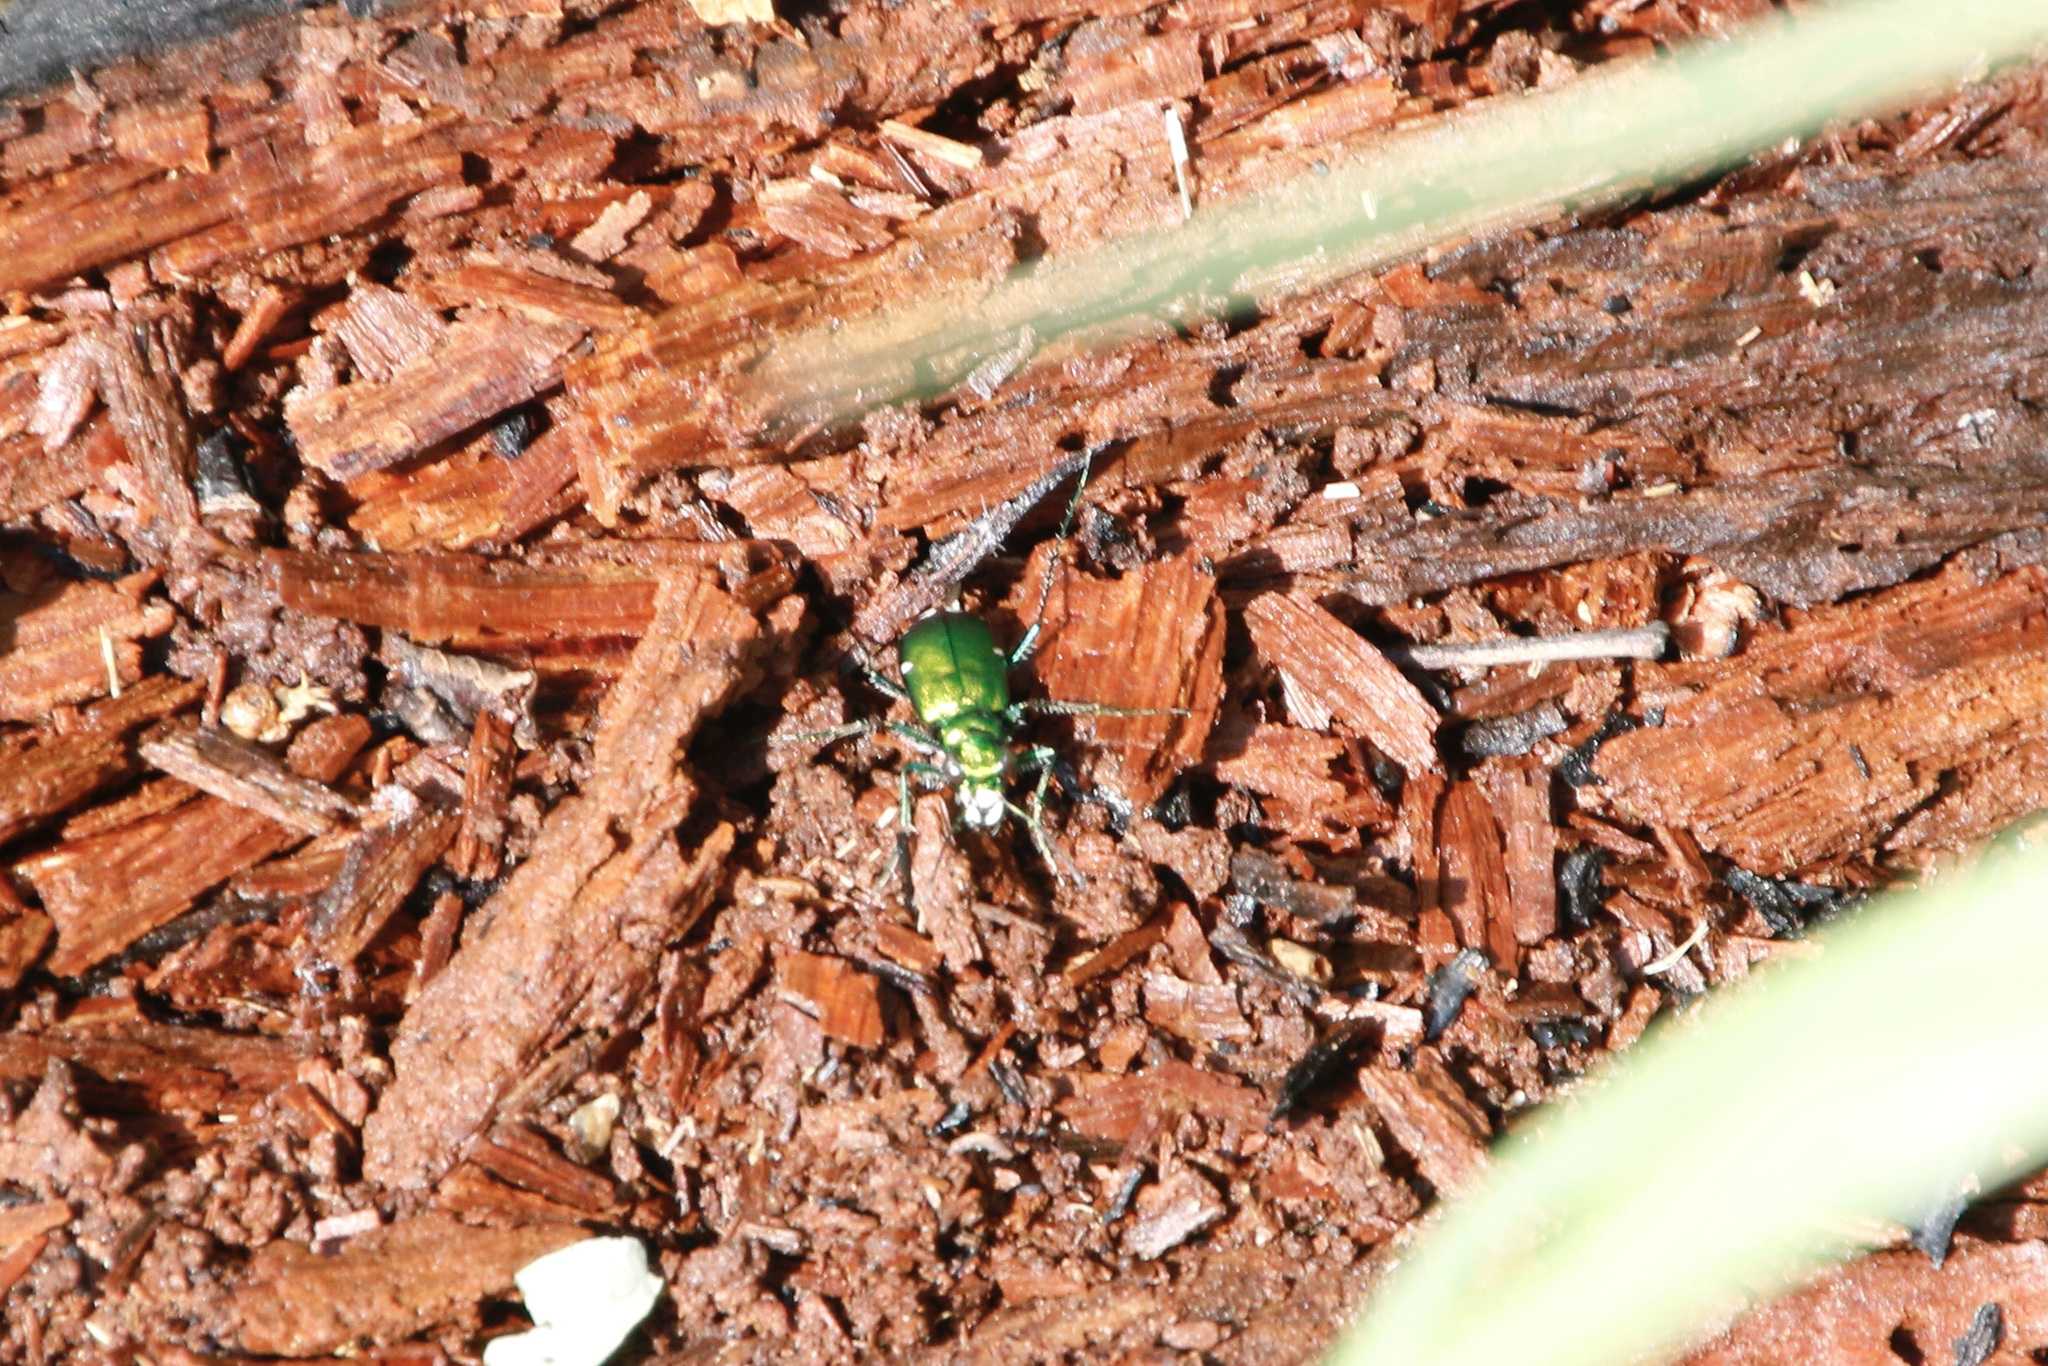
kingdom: Animalia
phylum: Arthropoda
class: Insecta
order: Coleoptera
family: Carabidae
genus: Cicindela
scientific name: Cicindela sexguttata
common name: Six-spotted tiger beetle
